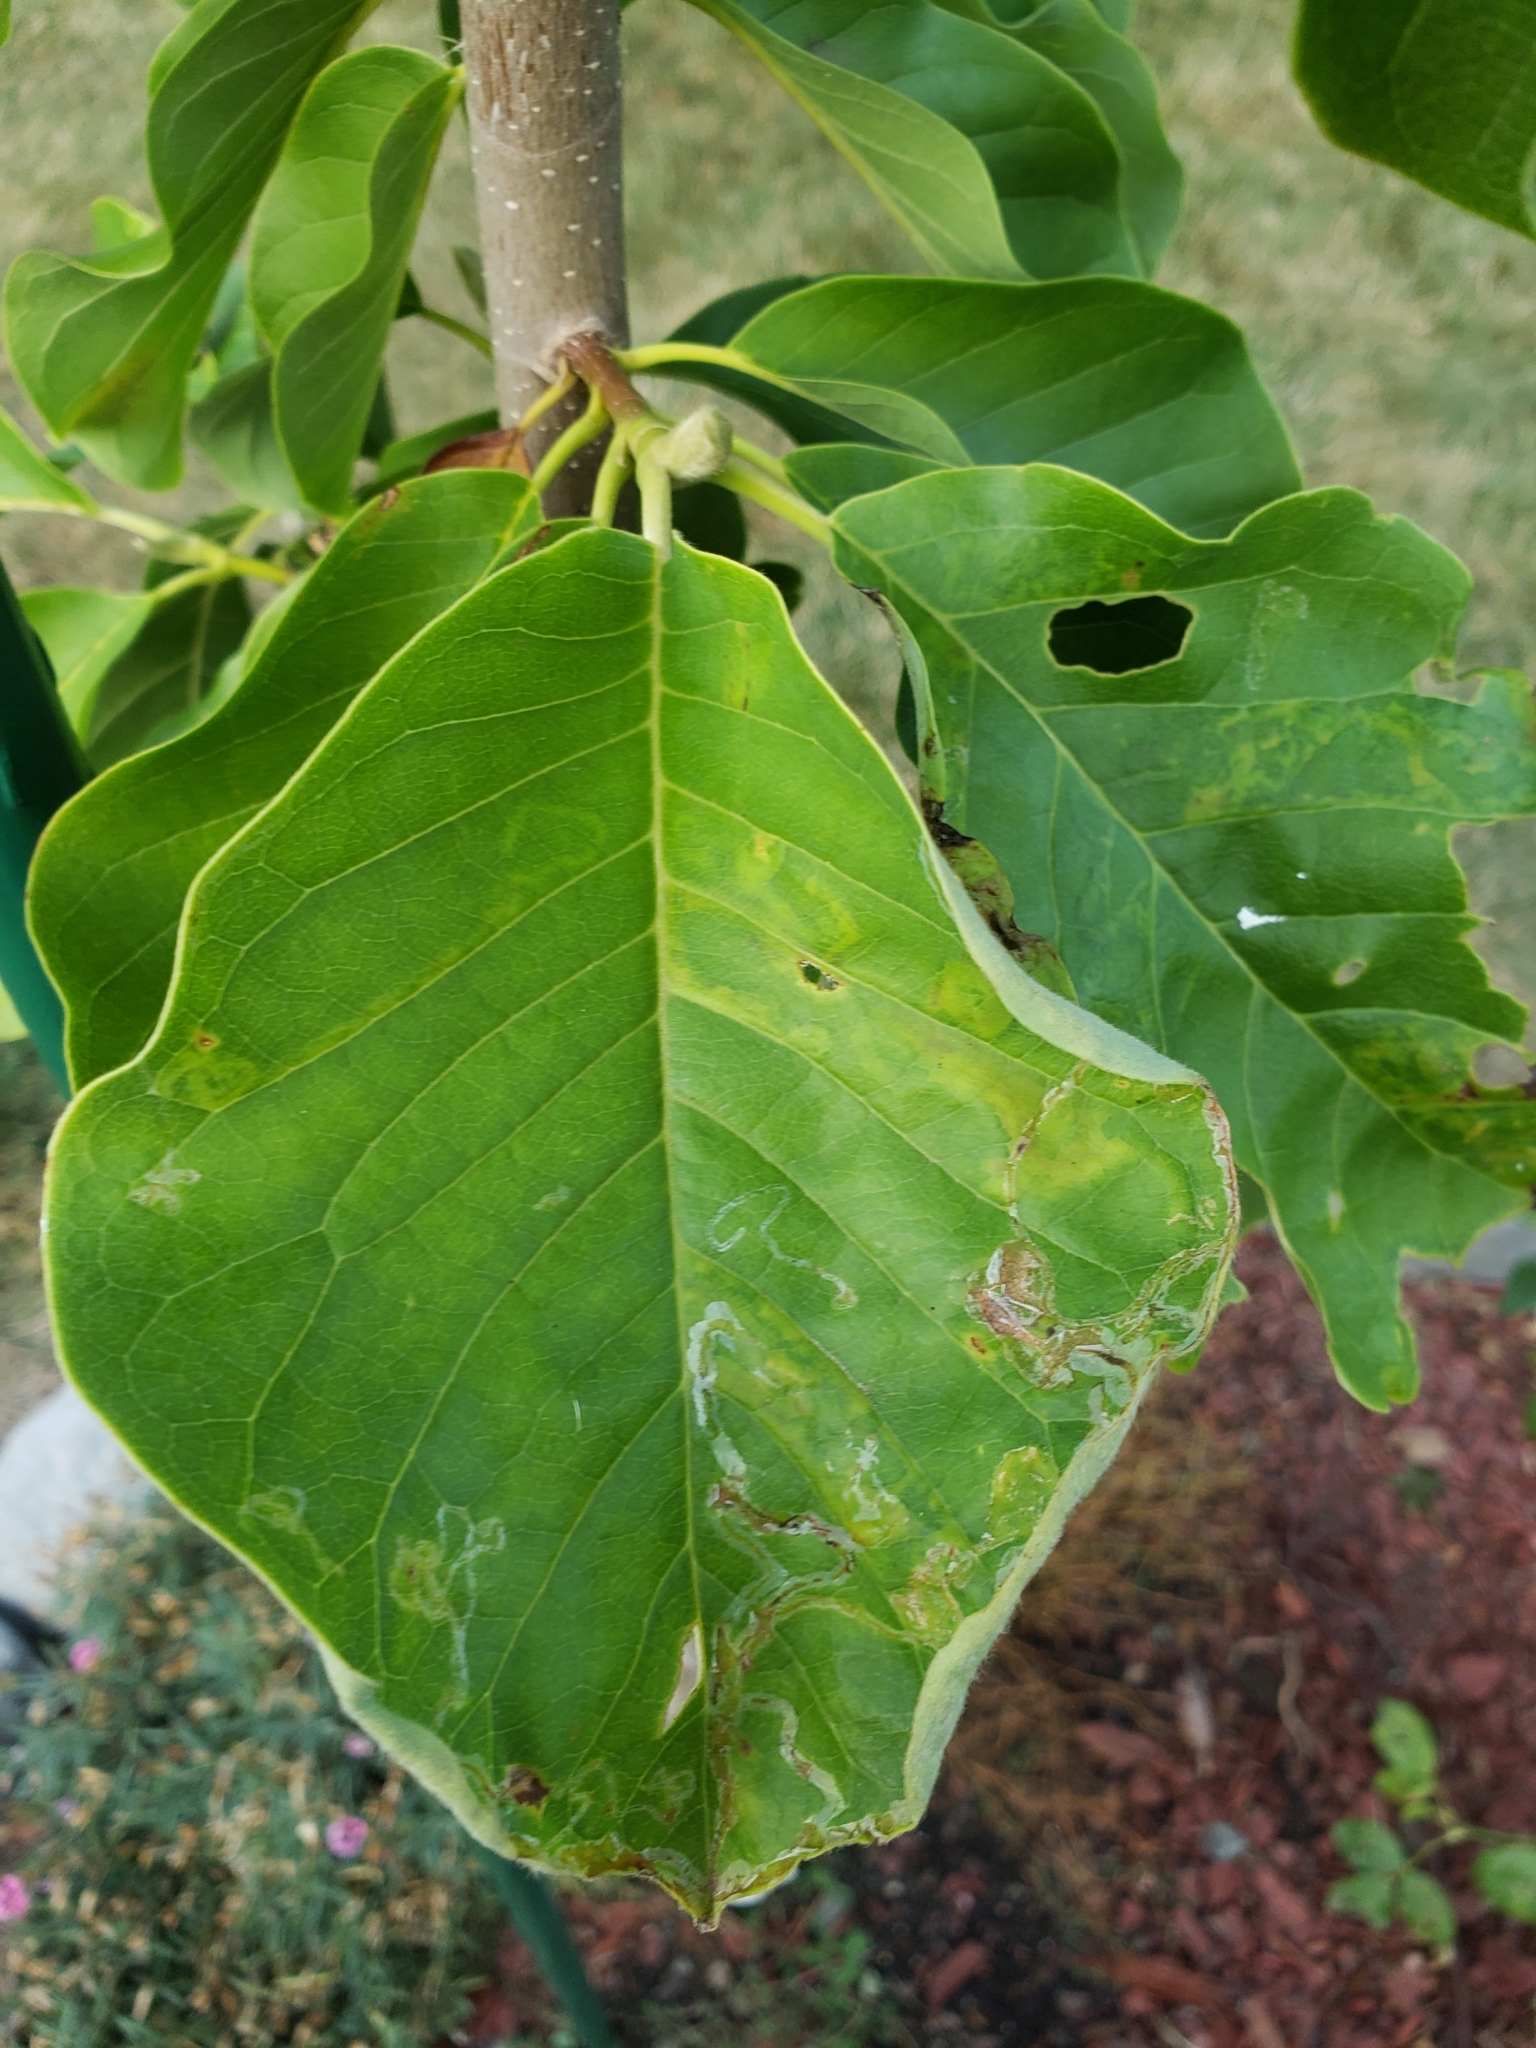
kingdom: Animalia
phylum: Arthropoda
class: Insecta
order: Lepidoptera
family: Gracillariidae
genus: Phyllocnistis
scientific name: Phyllocnistis liriodendronella
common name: Tulip tree leaf miner
